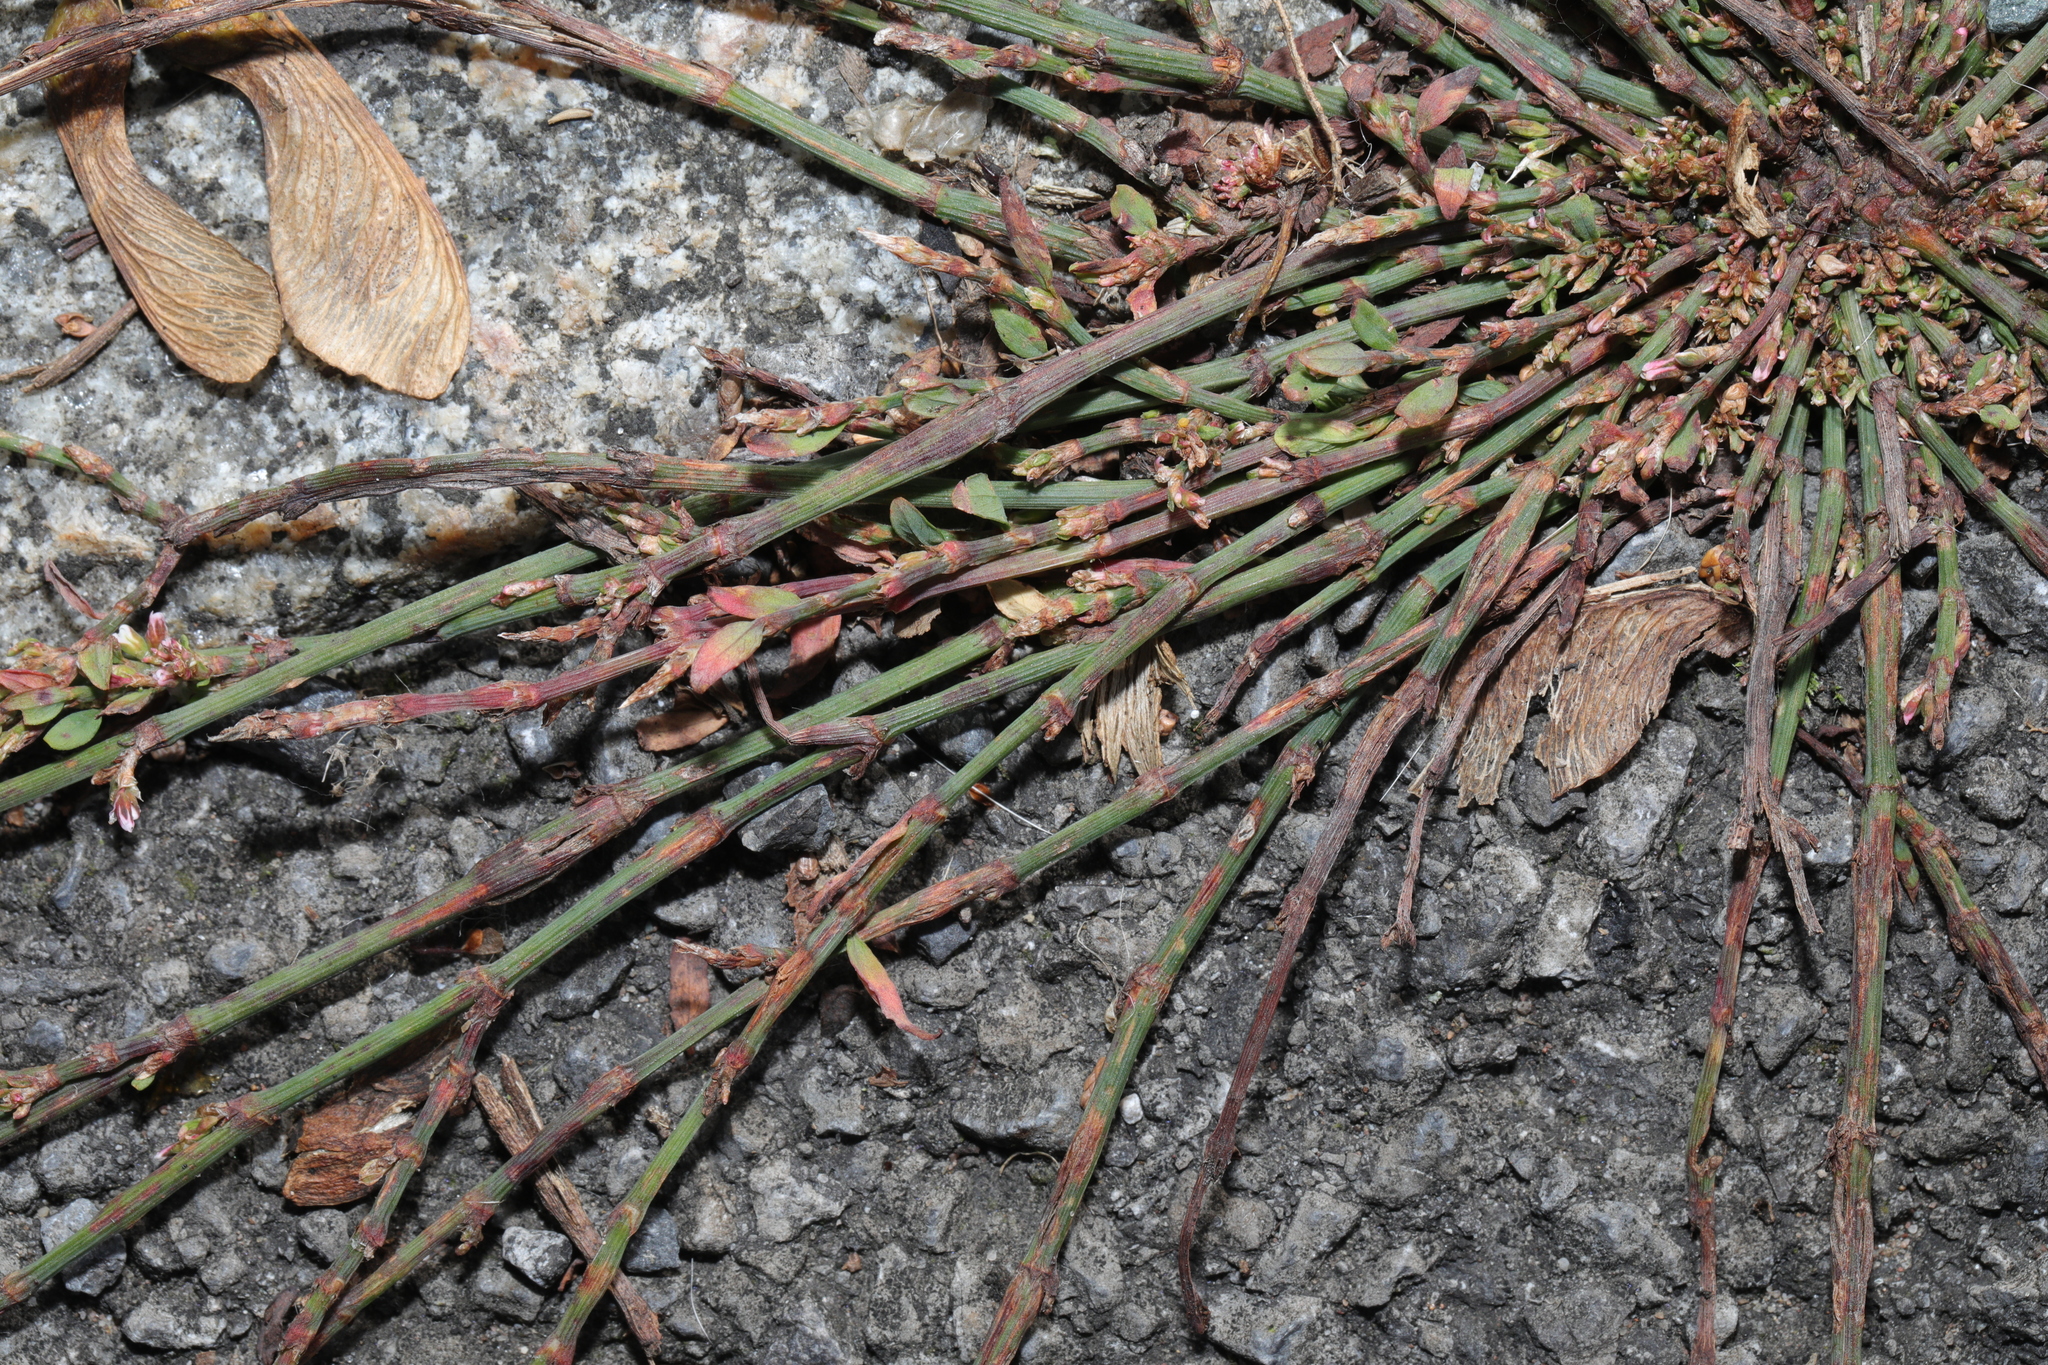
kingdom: Plantae
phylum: Tracheophyta
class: Magnoliopsida
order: Caryophyllales
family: Polygonaceae
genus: Polygonum
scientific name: Polygonum aviculare
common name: Prostrate knotweed
